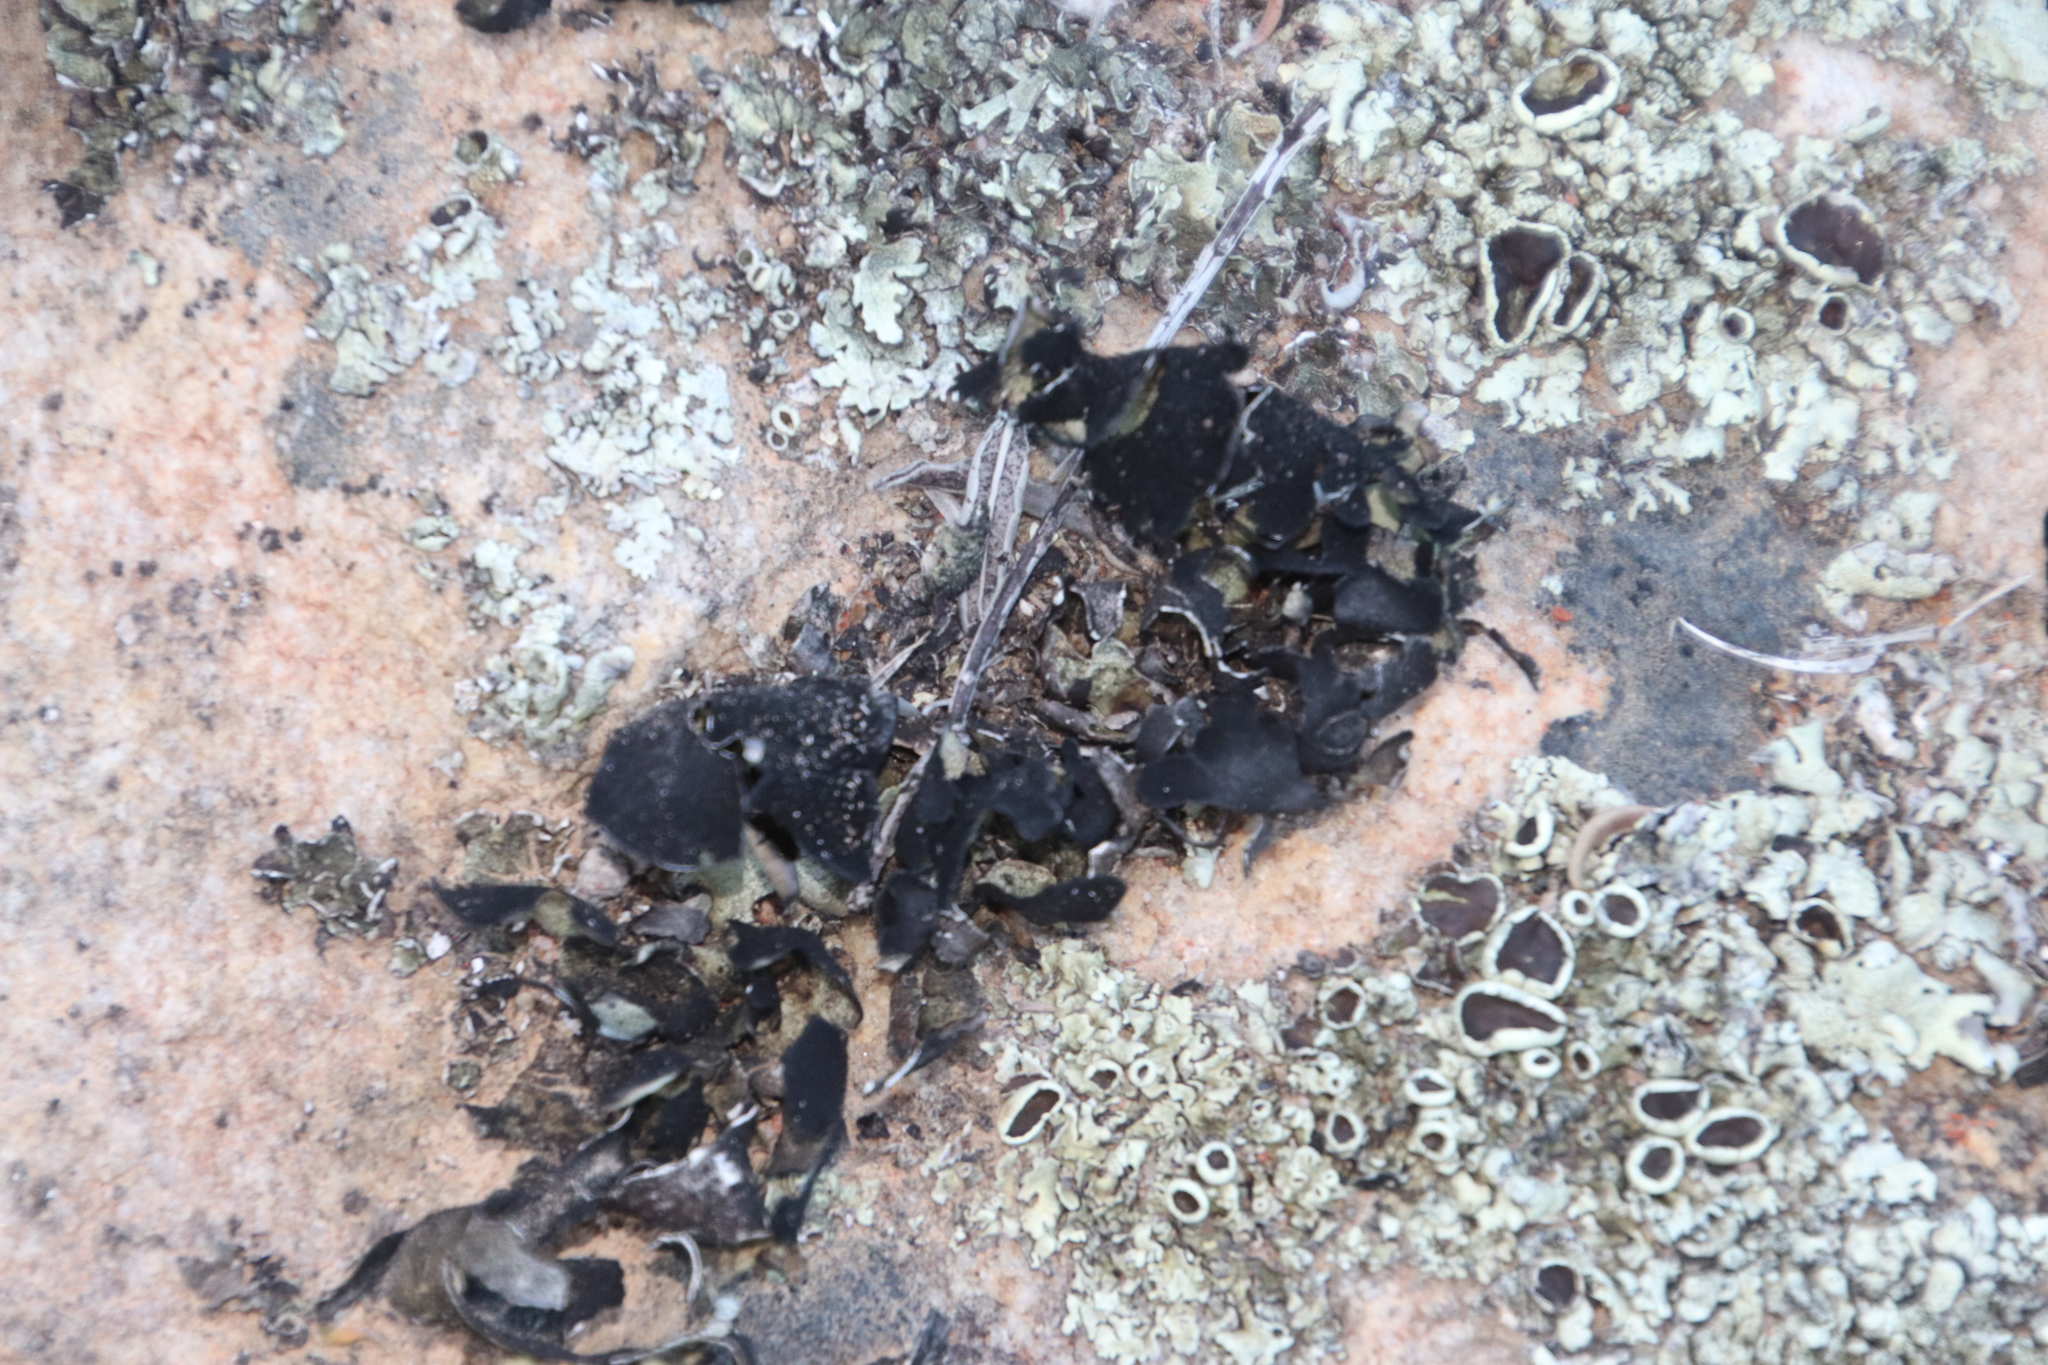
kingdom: Fungi
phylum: Ascomycota
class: Lecanoromycetes
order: Lecanorales
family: Parmeliaceae
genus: Xanthoparmelia
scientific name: Xanthoparmelia hottentotta
